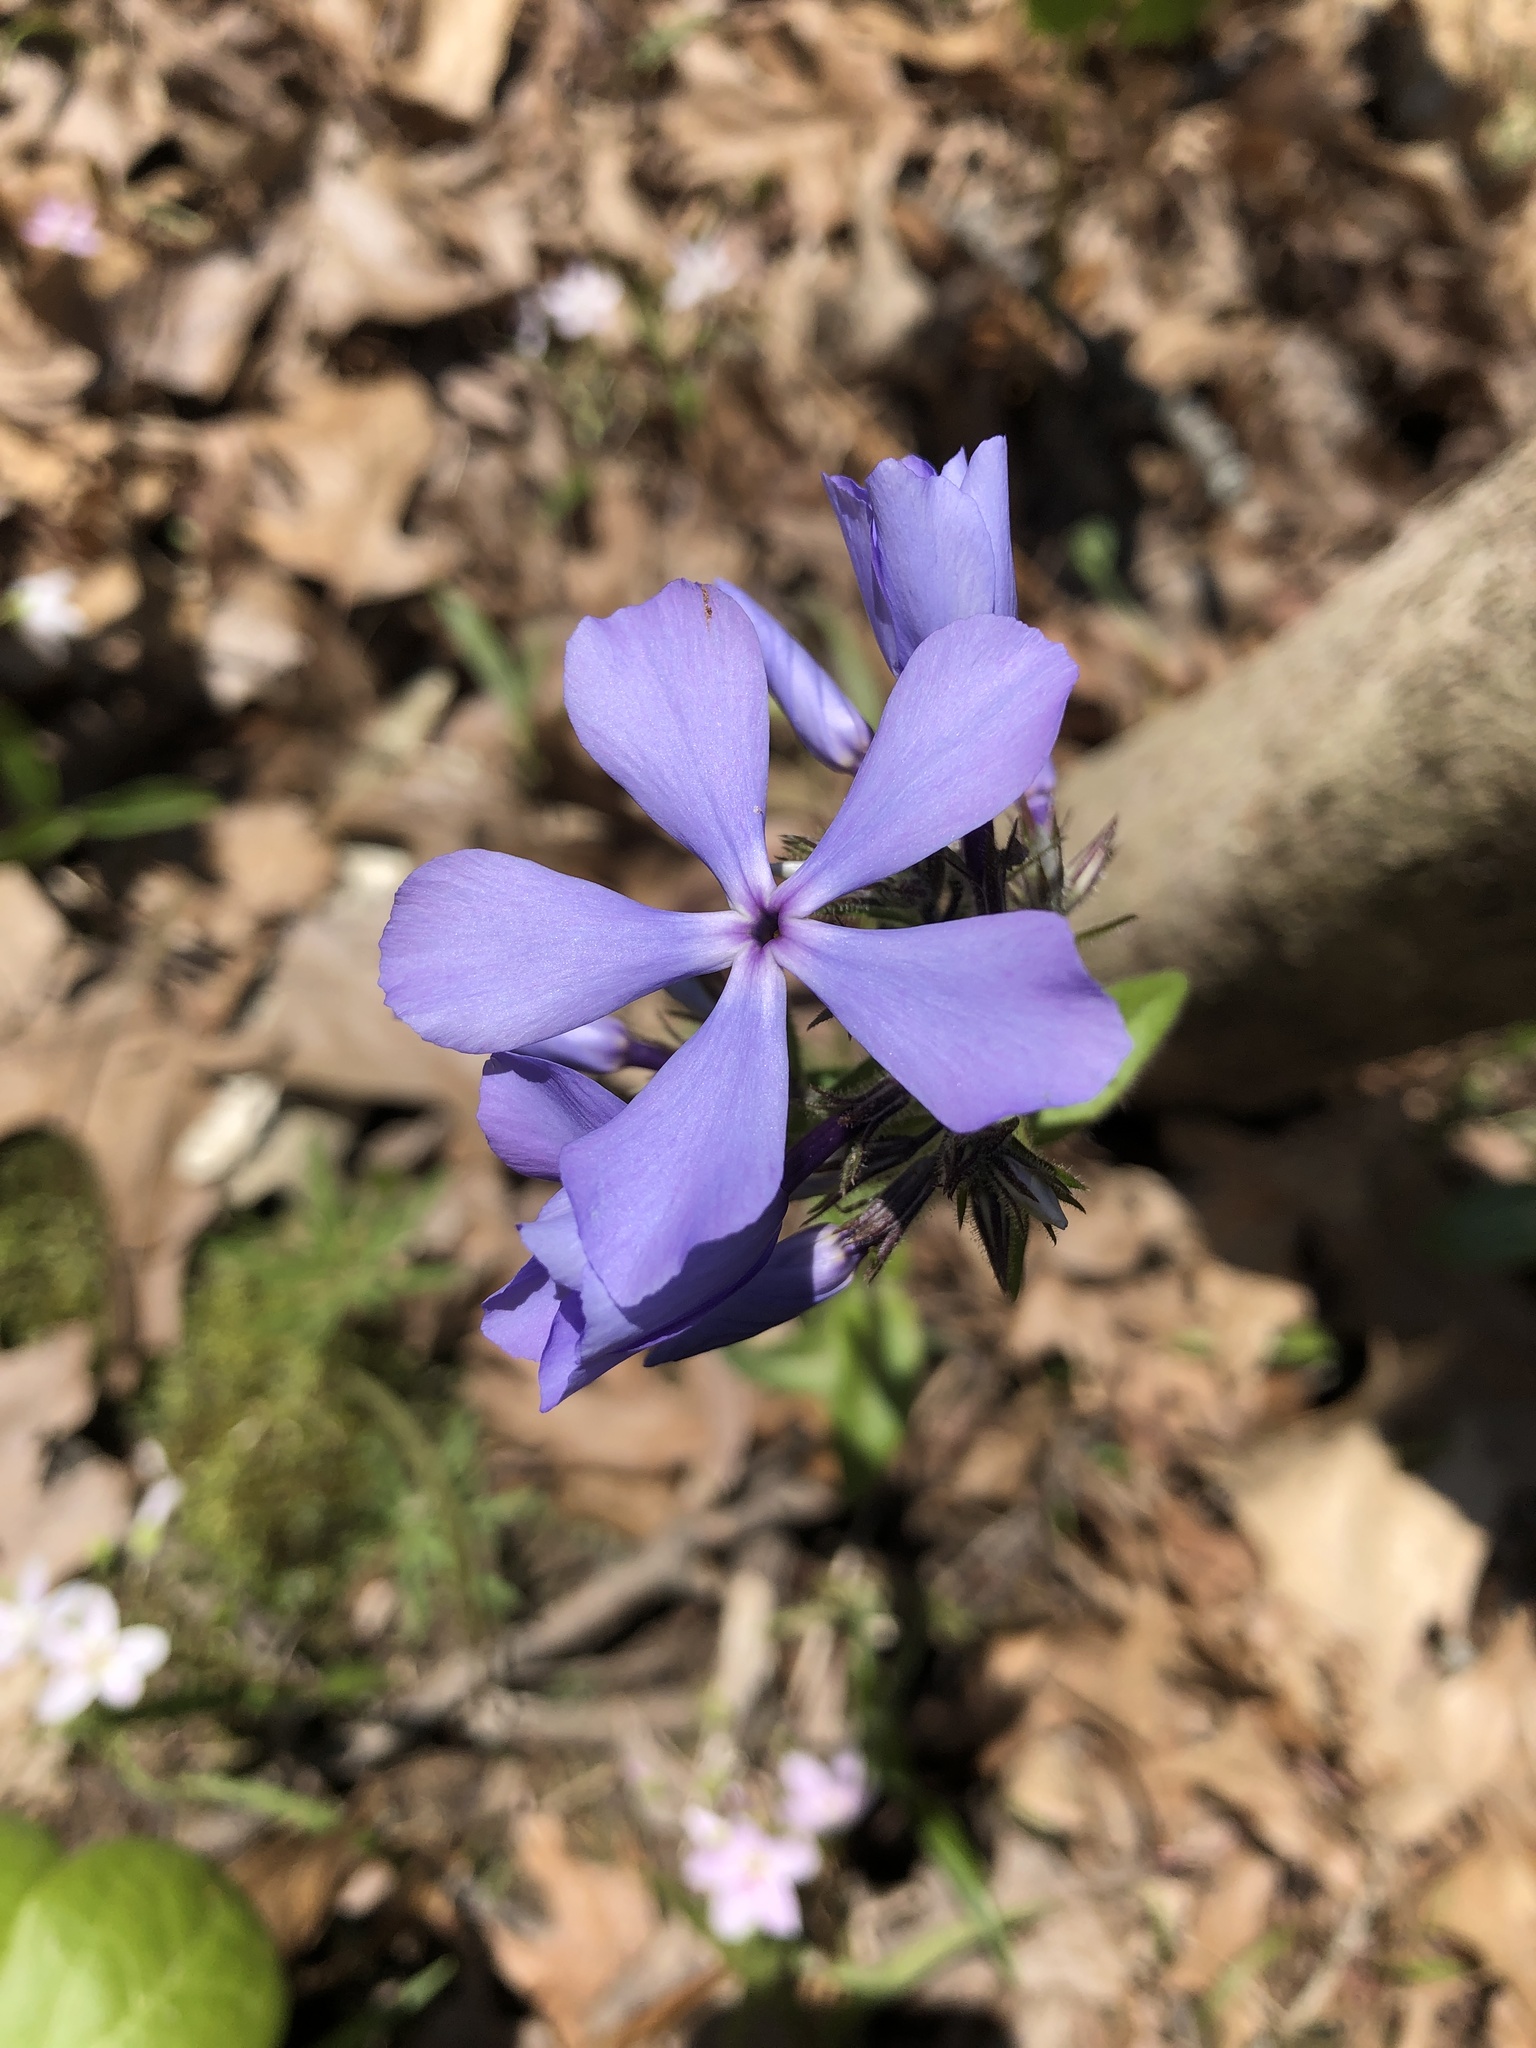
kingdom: Plantae
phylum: Tracheophyta
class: Magnoliopsida
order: Ericales
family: Polemoniaceae
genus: Phlox
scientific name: Phlox divaricata
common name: Blue phlox
